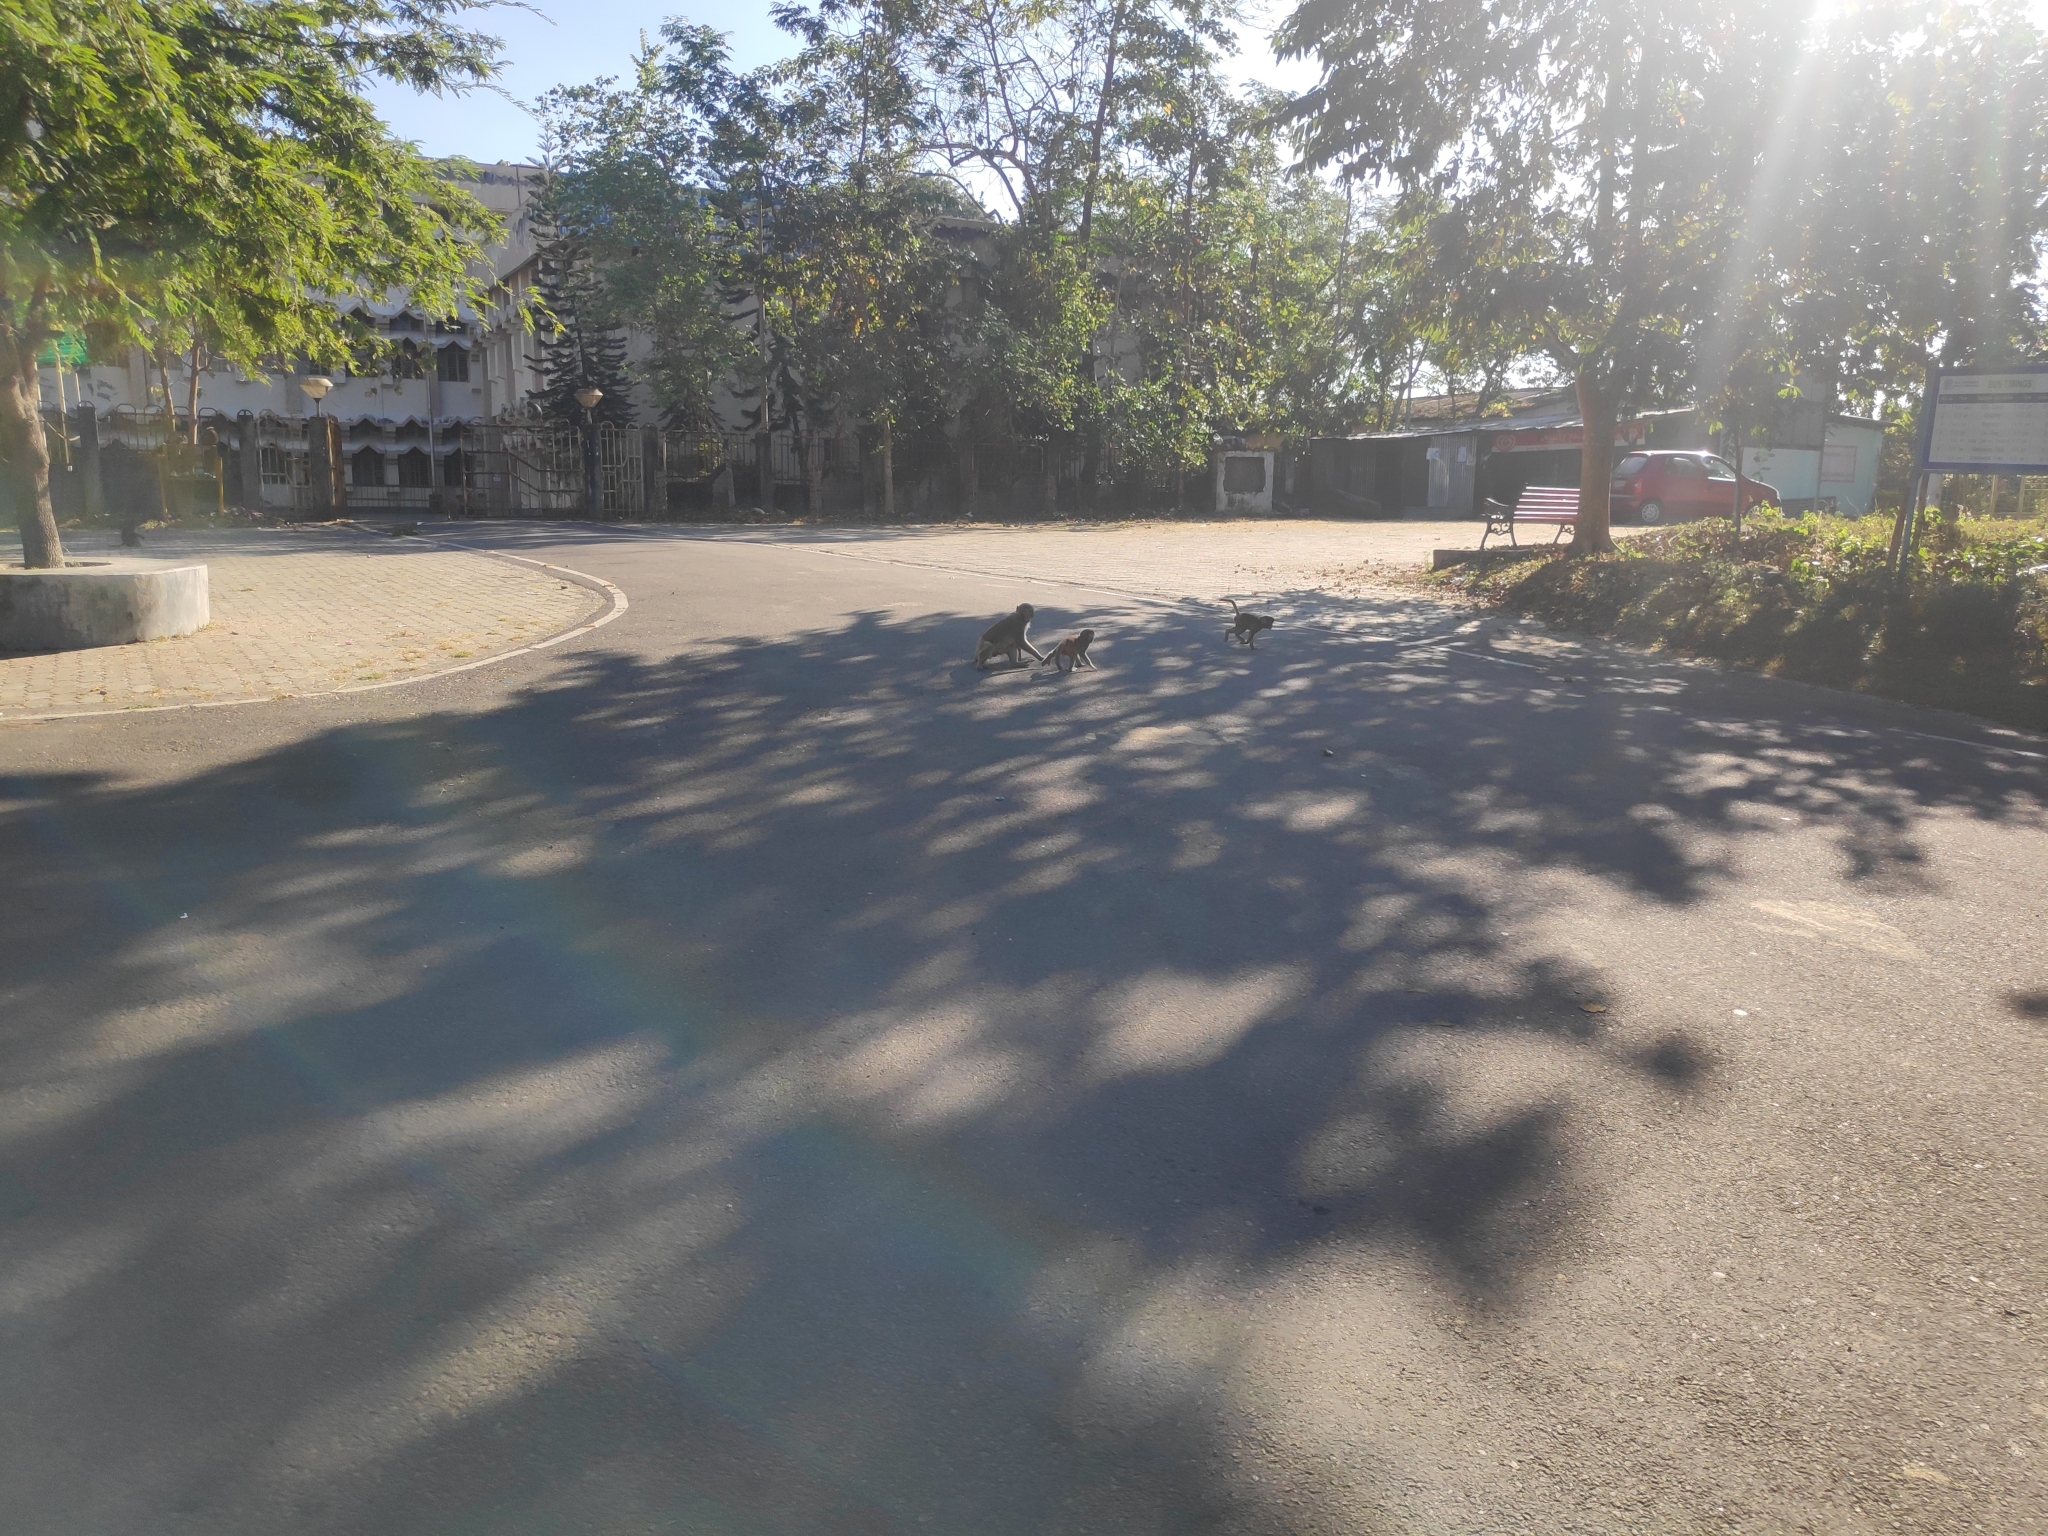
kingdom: Animalia
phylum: Chordata
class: Mammalia
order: Primates
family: Cercopithecidae
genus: Macaca
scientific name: Macaca mulatta
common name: Rhesus monkey
